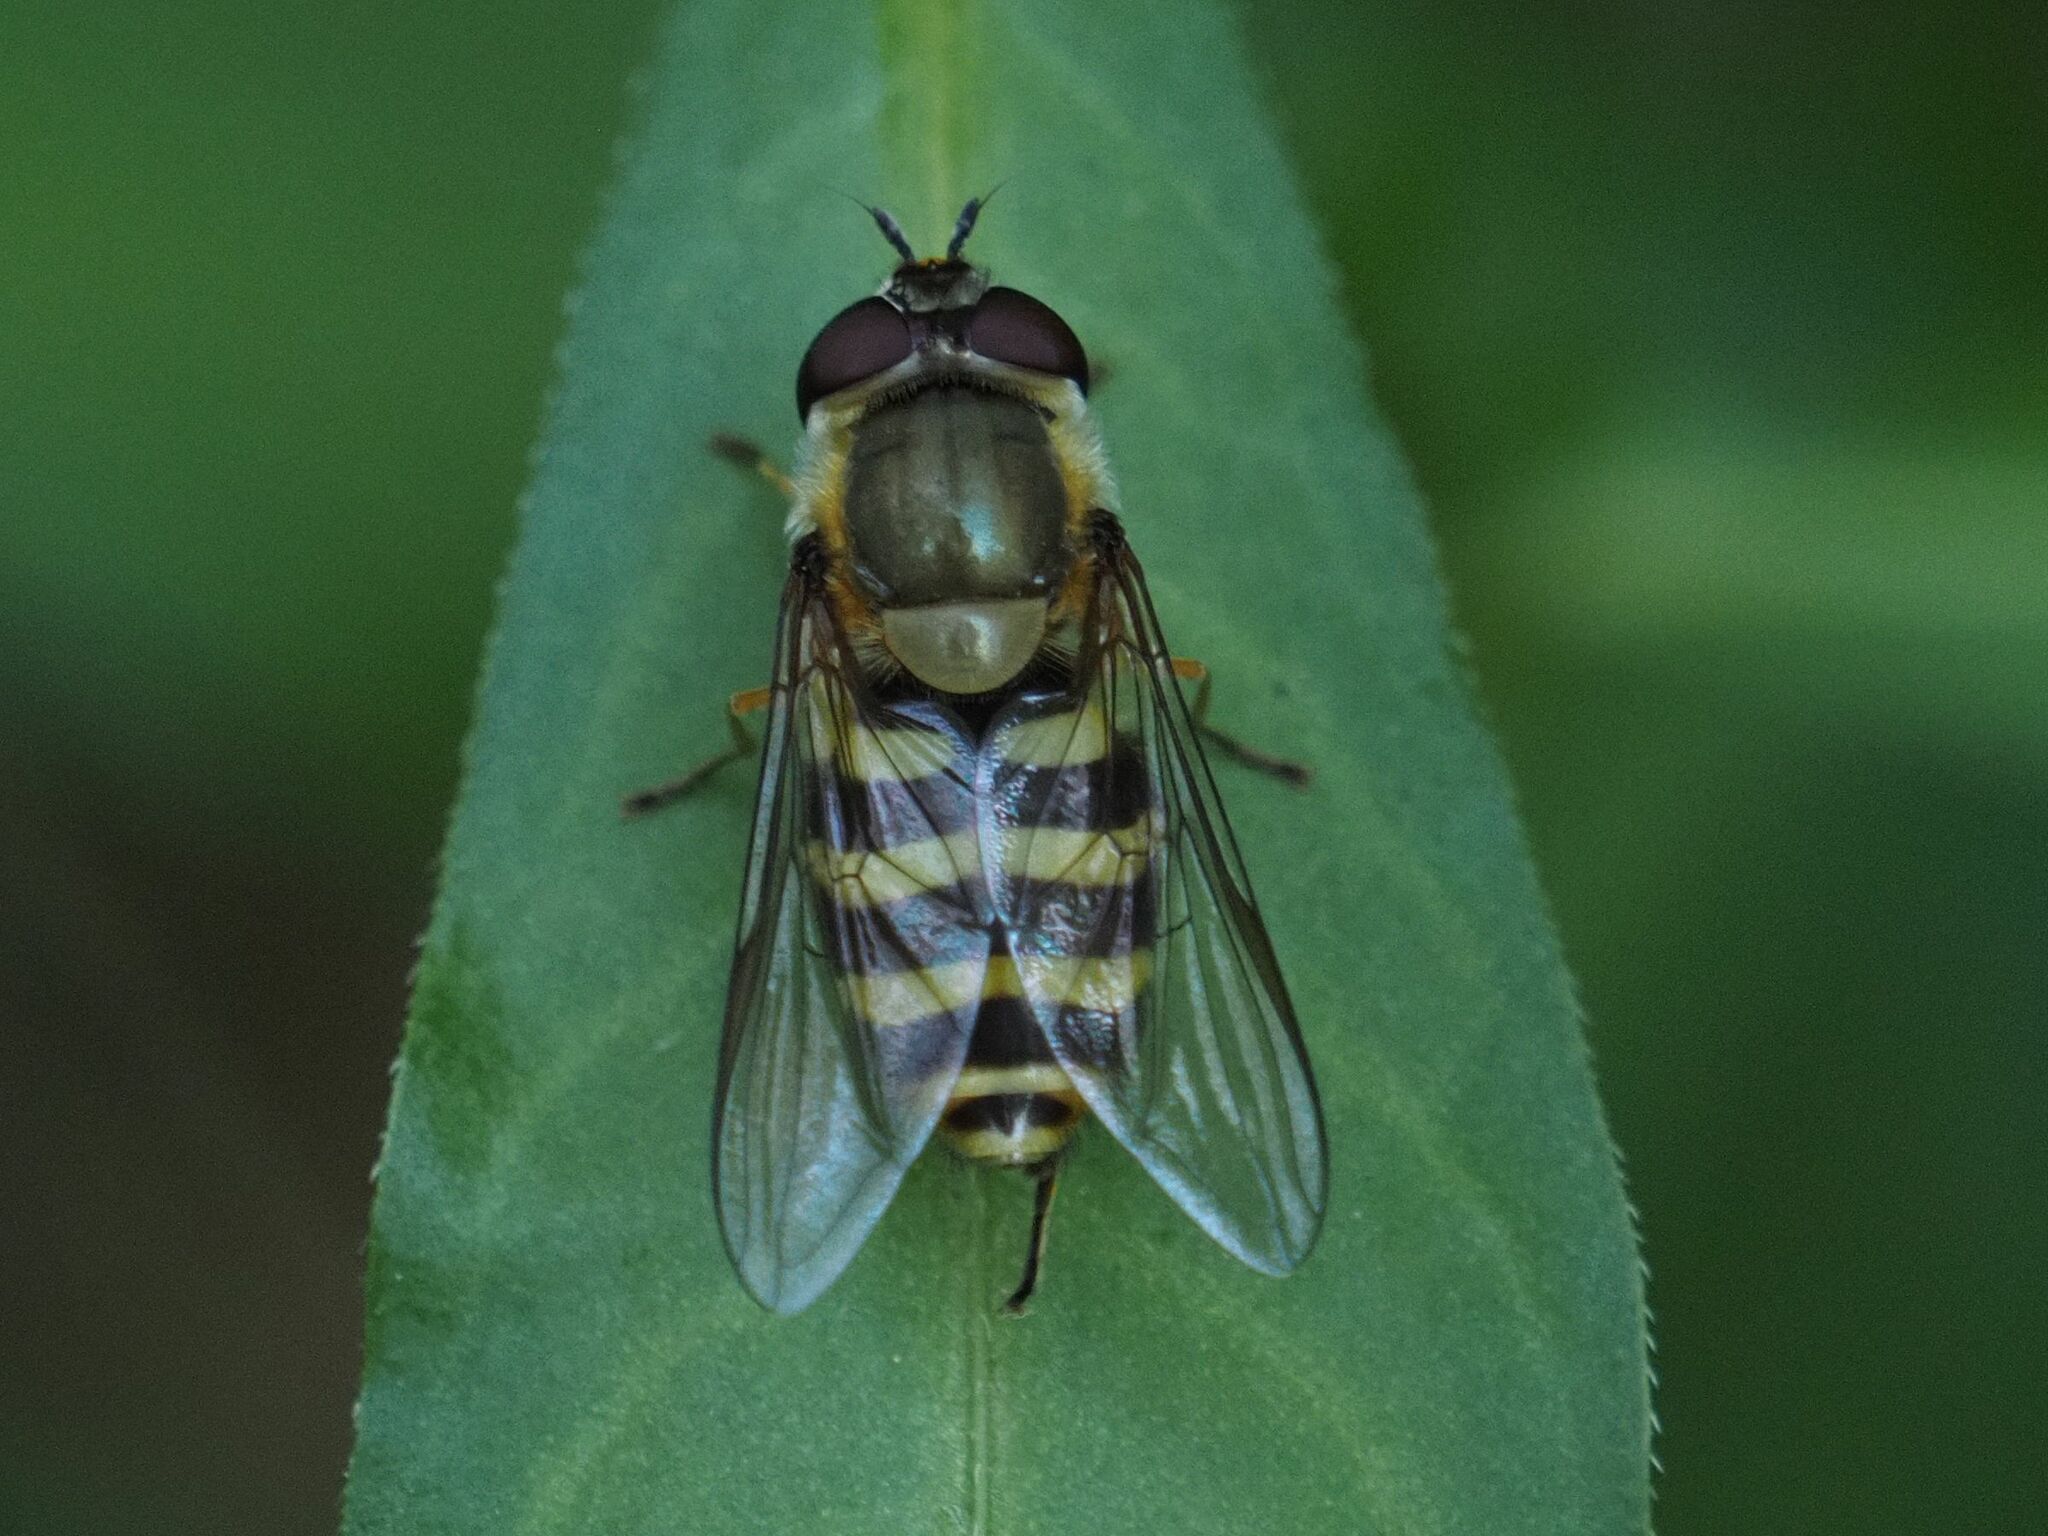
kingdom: Animalia
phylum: Arthropoda
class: Insecta
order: Diptera
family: Syrphidae
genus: Syrphus
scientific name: Syrphus
